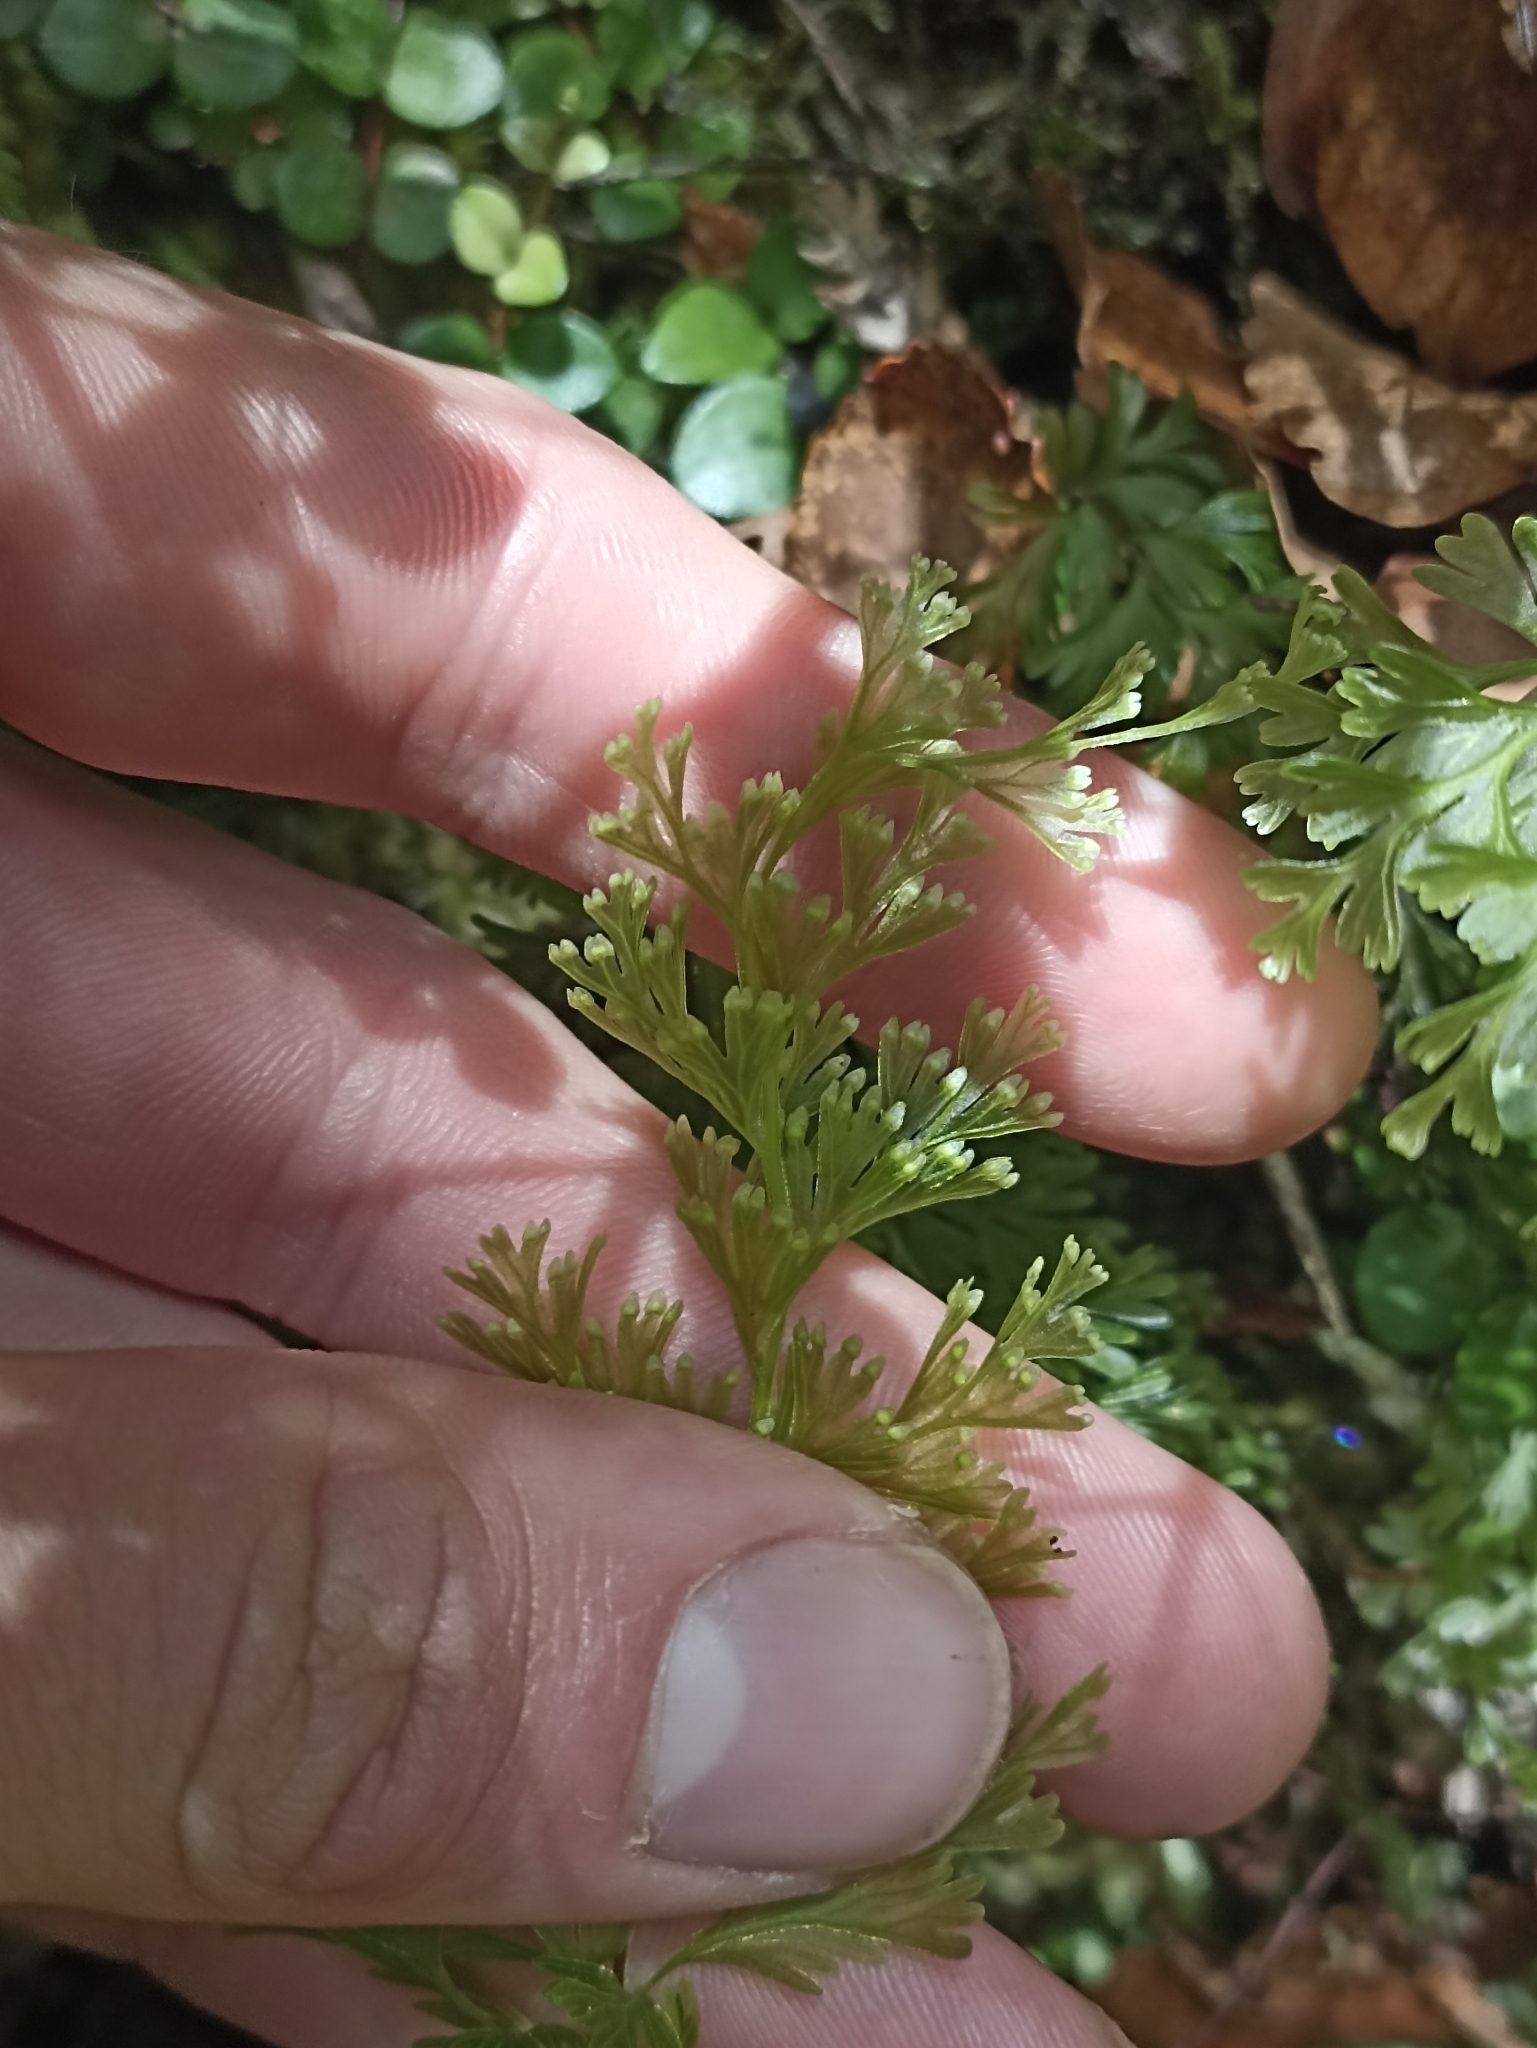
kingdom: Plantae
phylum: Tracheophyta
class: Polypodiopsida
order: Hymenophyllales
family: Hymenophyllaceae
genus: Hymenophyllum
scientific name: Hymenophyllum demissum
